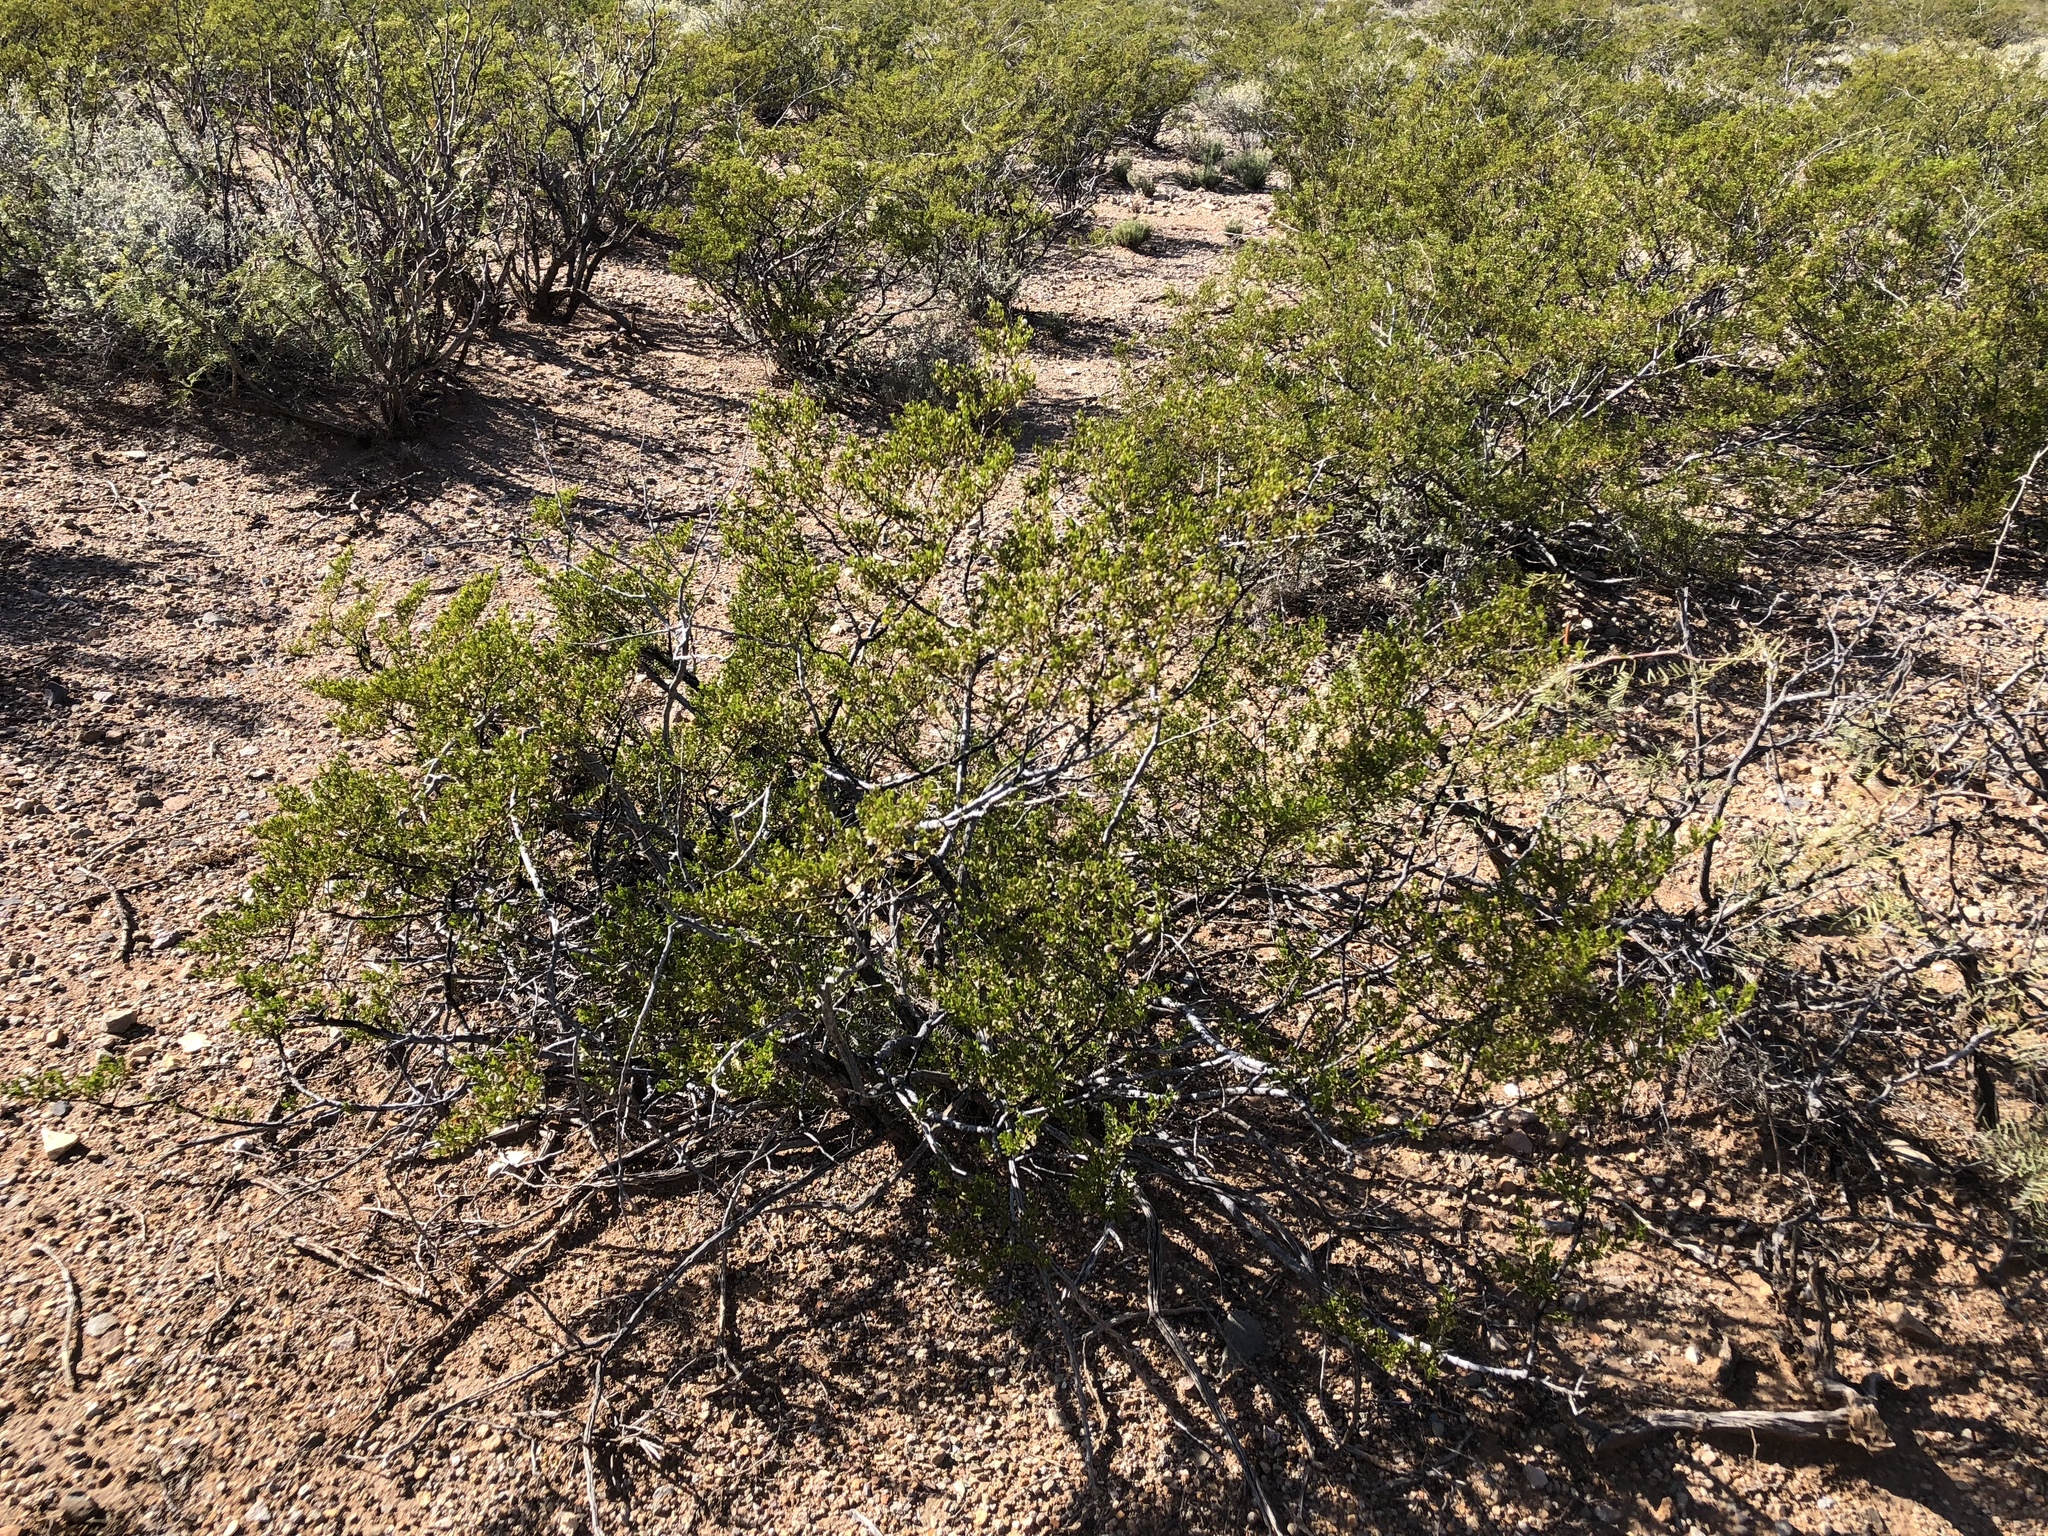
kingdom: Plantae
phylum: Tracheophyta
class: Magnoliopsida
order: Zygophyllales
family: Zygophyllaceae
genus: Larrea
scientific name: Larrea tridentata
